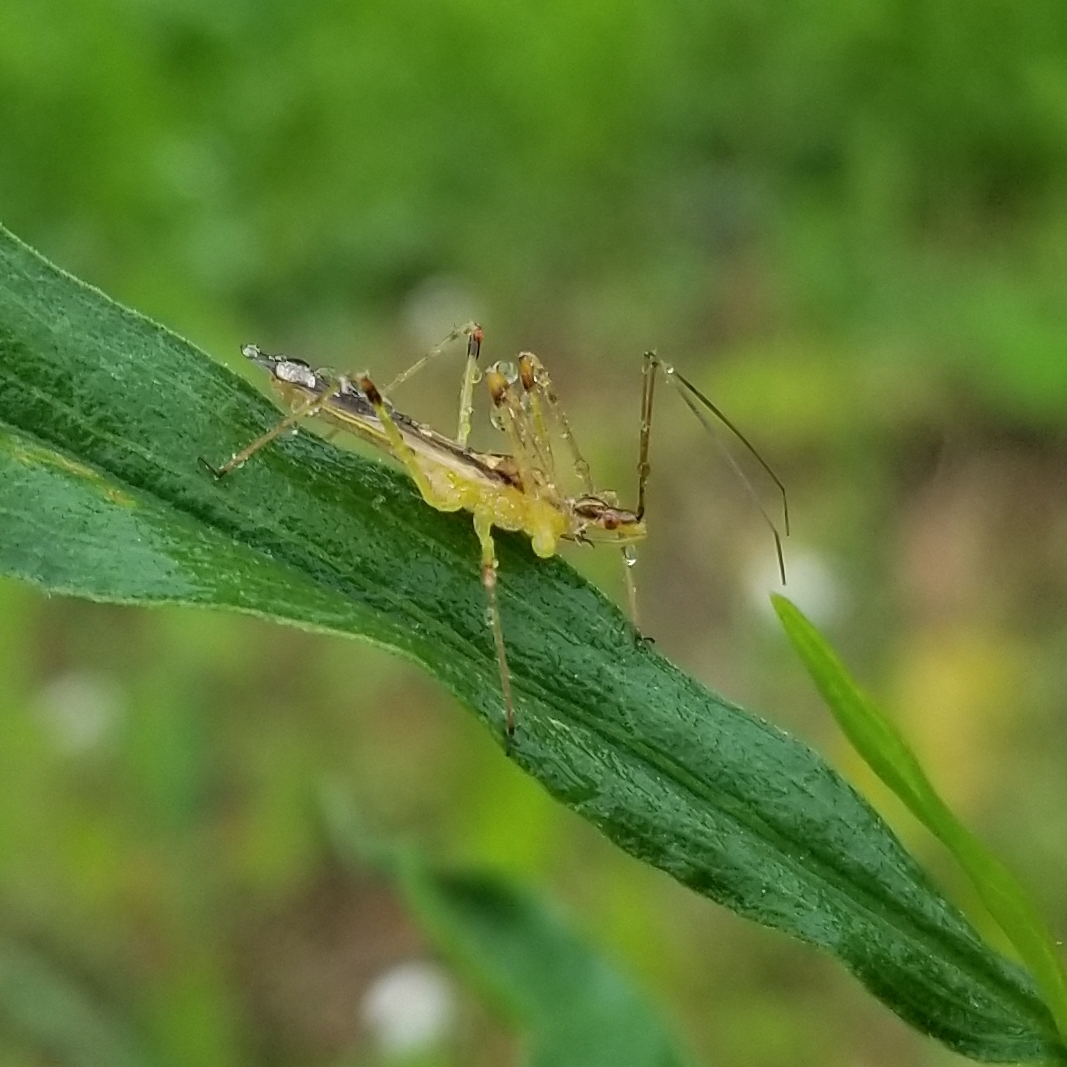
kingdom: Animalia
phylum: Arthropoda
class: Insecta
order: Hemiptera
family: Reduviidae
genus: Zelus
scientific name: Zelus luridus
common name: Pale green assassin bug
